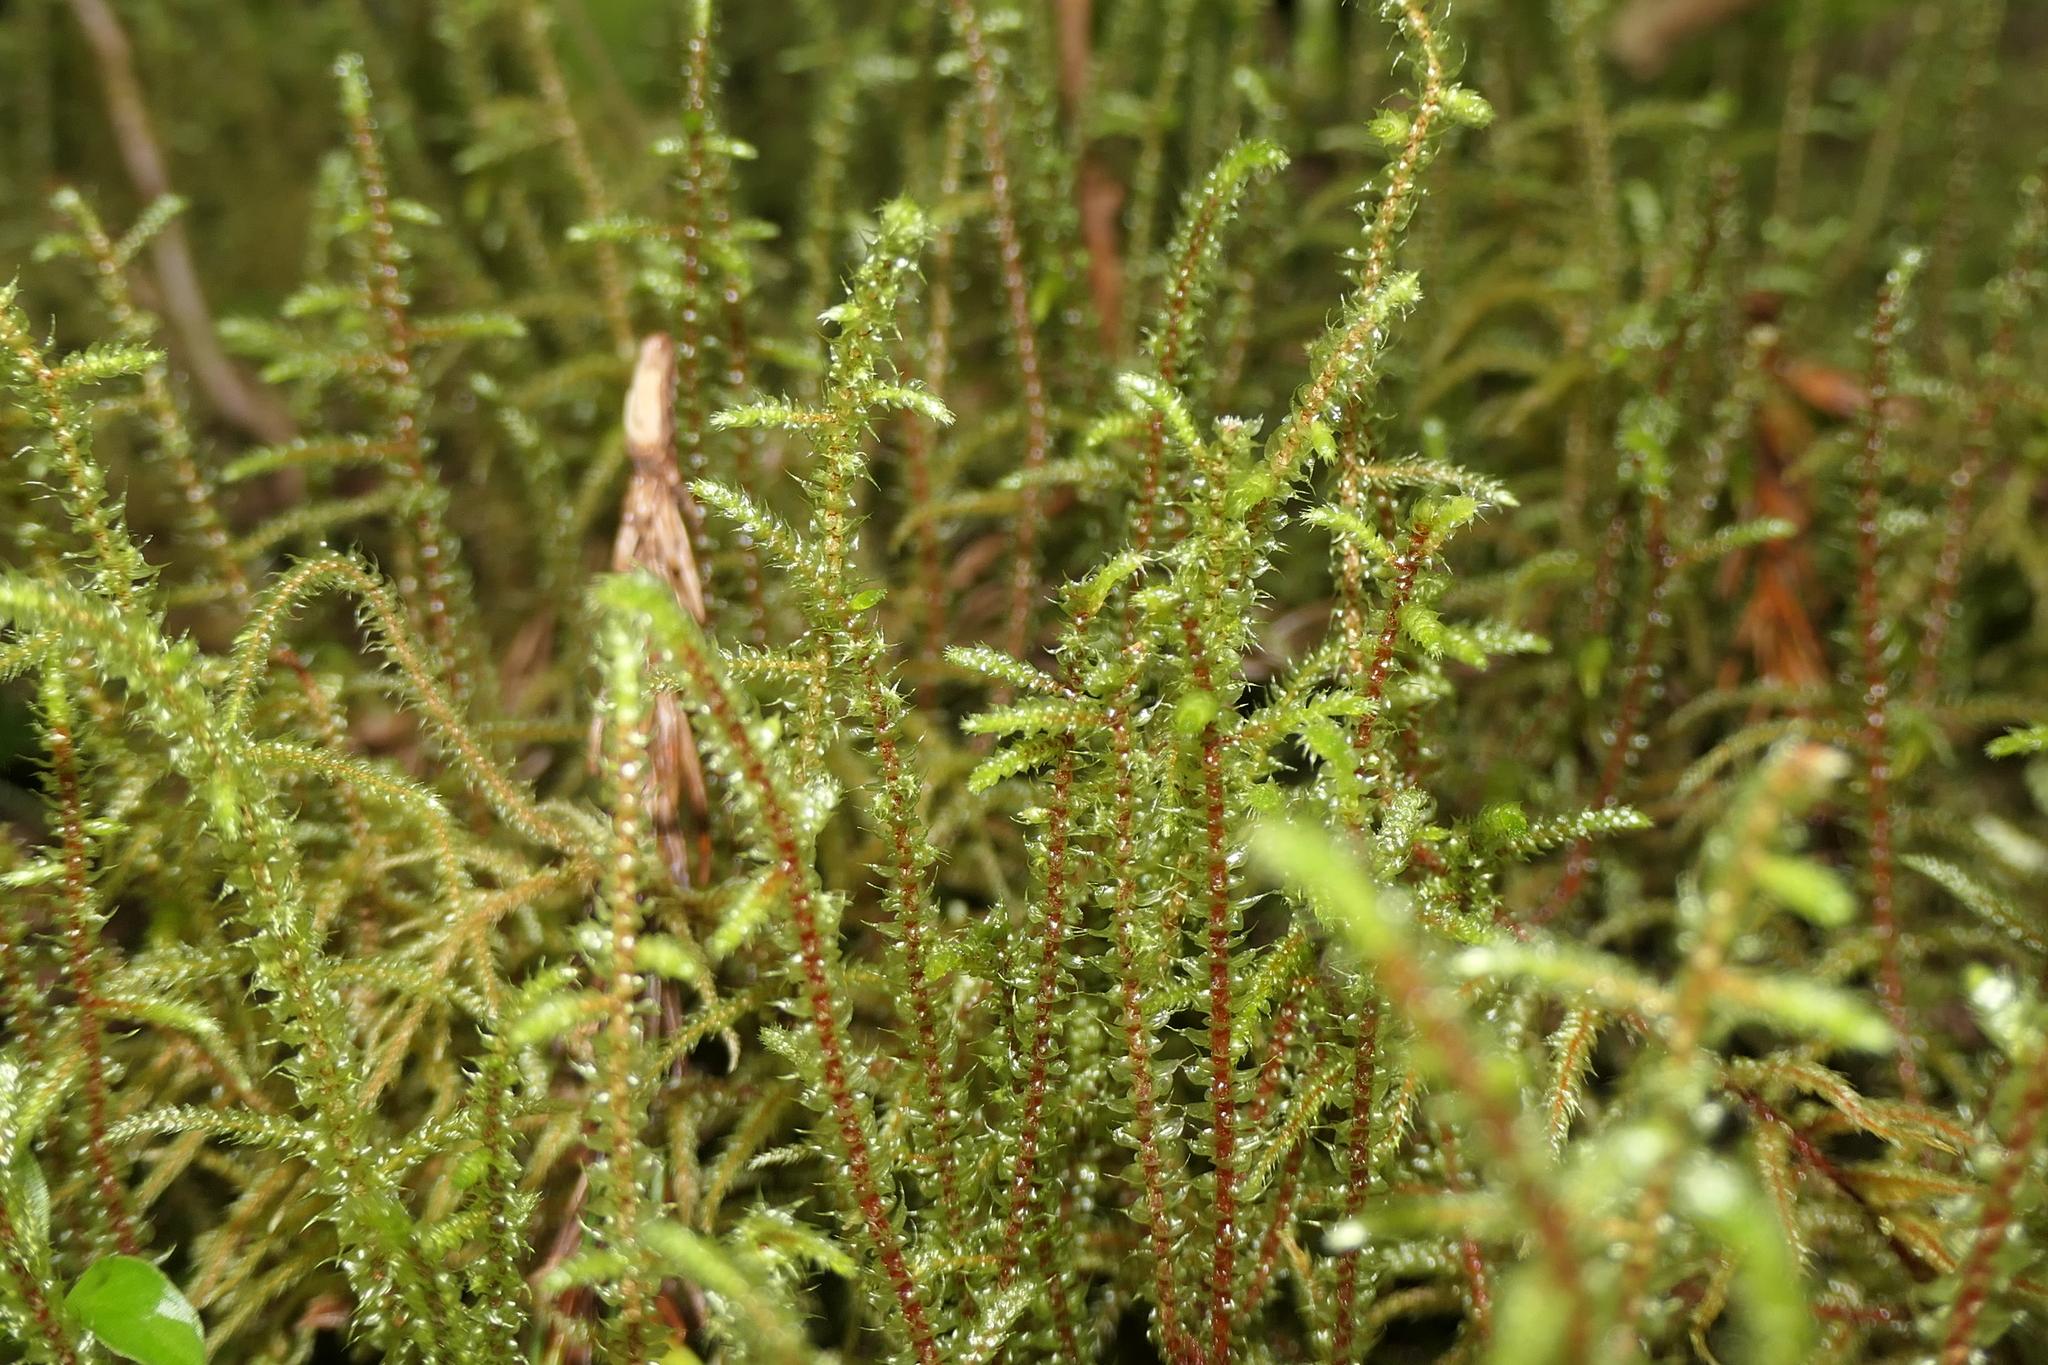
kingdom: Plantae
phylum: Bryophyta
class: Bryopsida
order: Hypnales
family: Hylocomiaceae
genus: Rhytidiadelphus
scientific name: Rhytidiadelphus squarrosus
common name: Springy turf-moss
